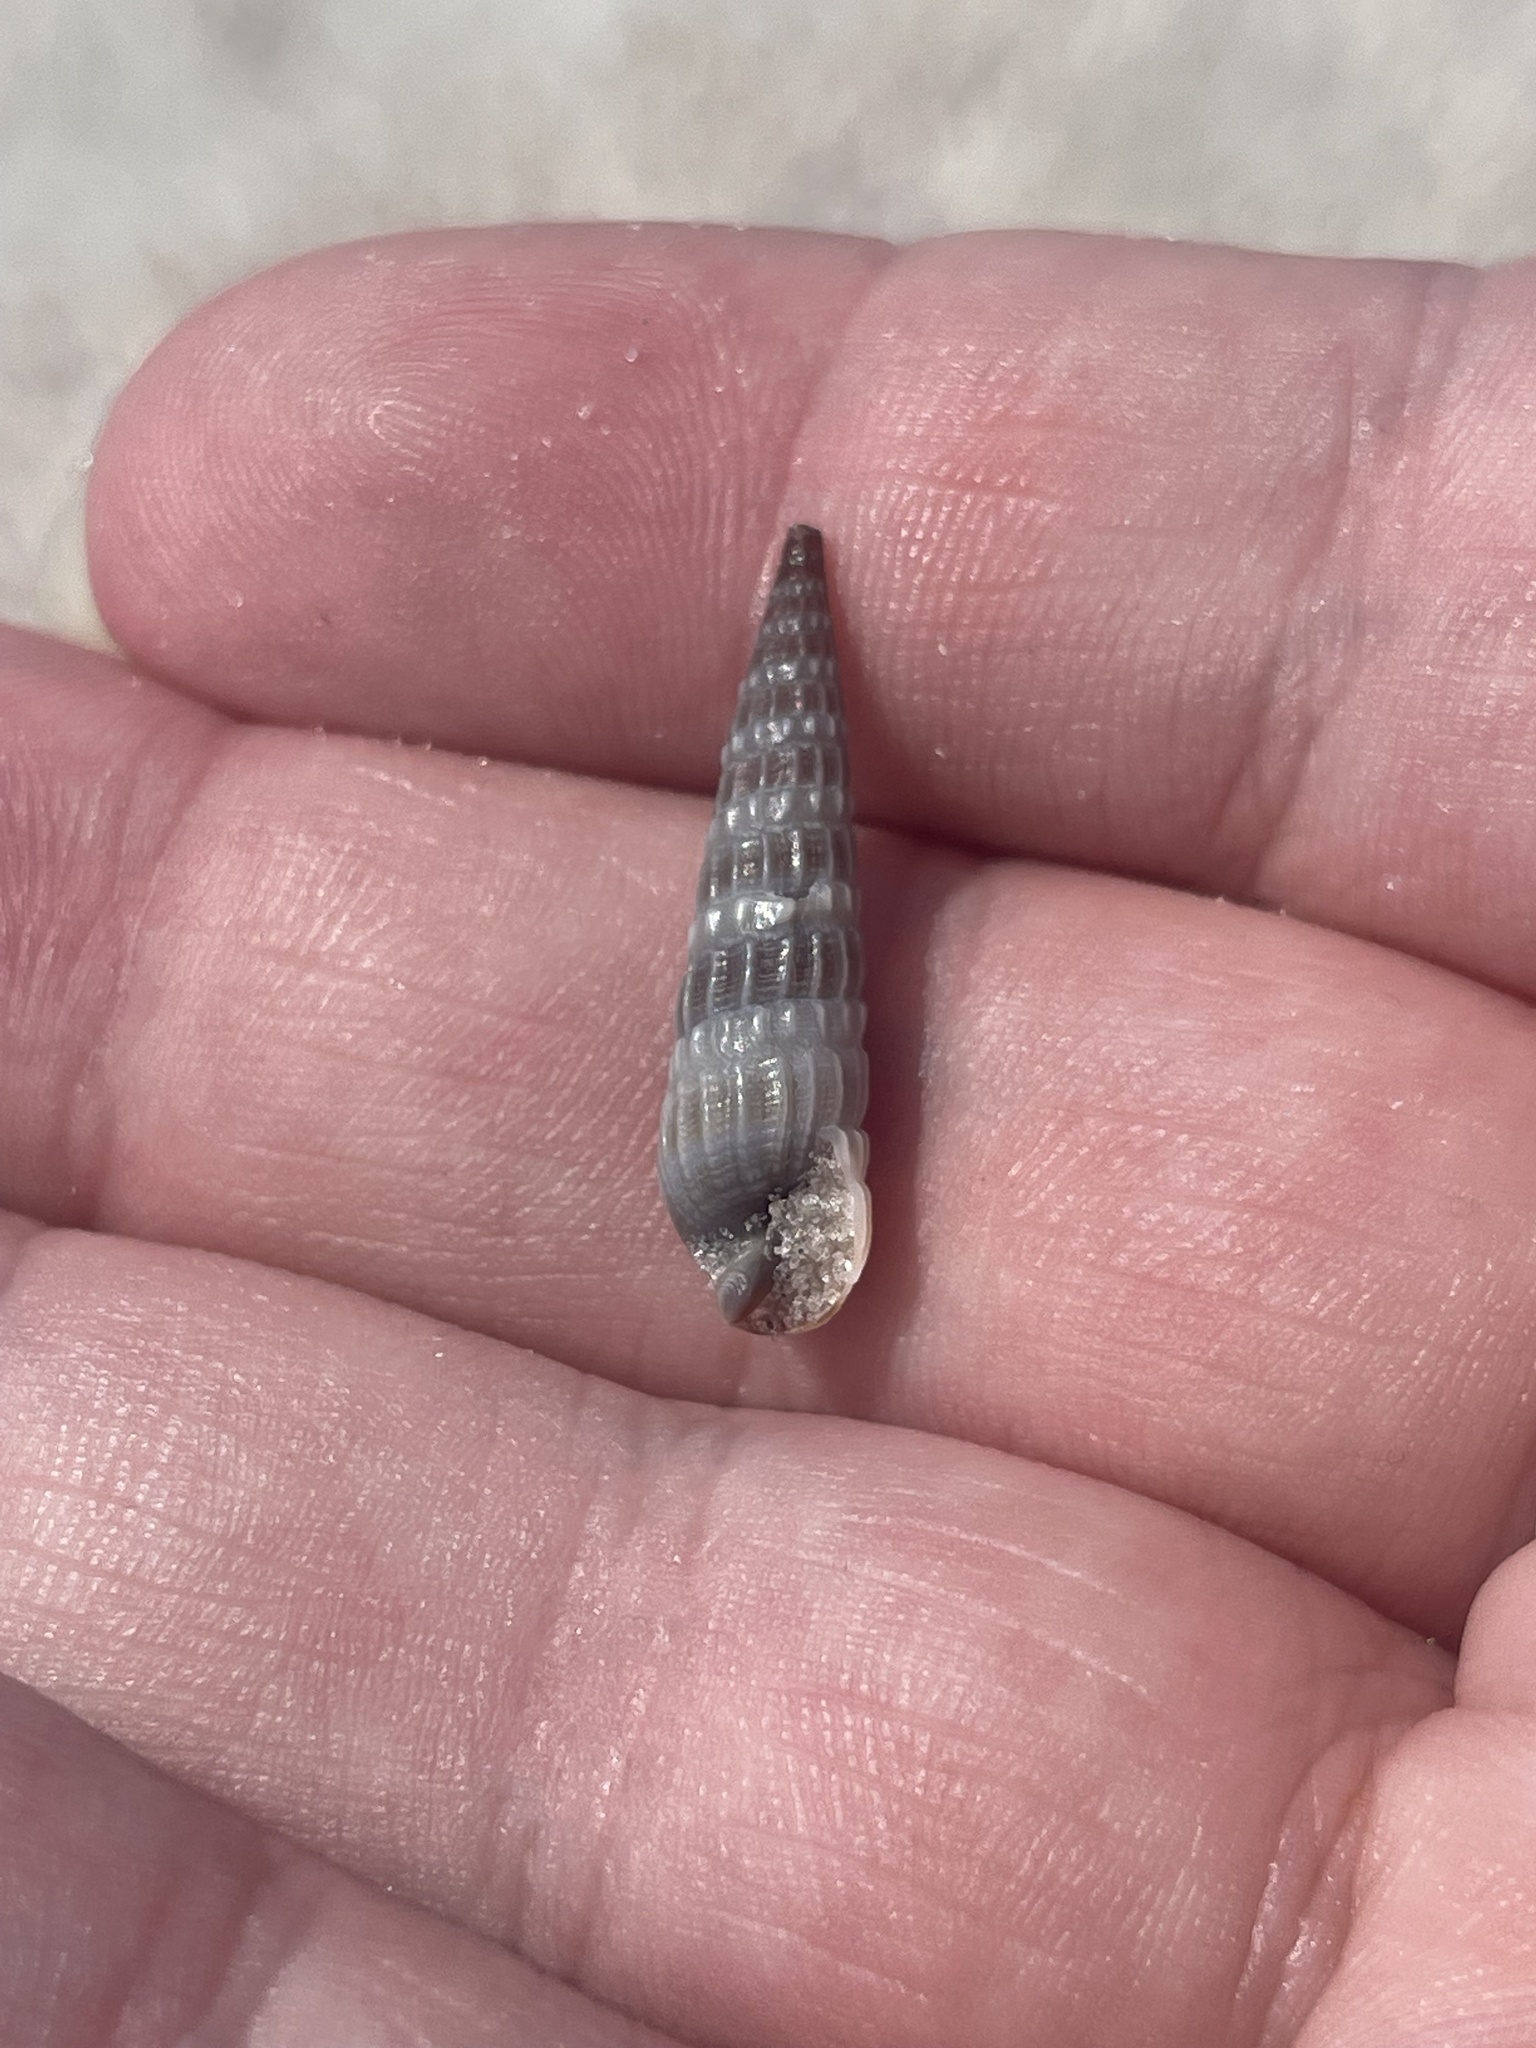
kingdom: Animalia
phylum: Mollusca
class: Gastropoda
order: Neogastropoda
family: Terebridae
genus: Neoterebra
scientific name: Neoterebra dislocata
